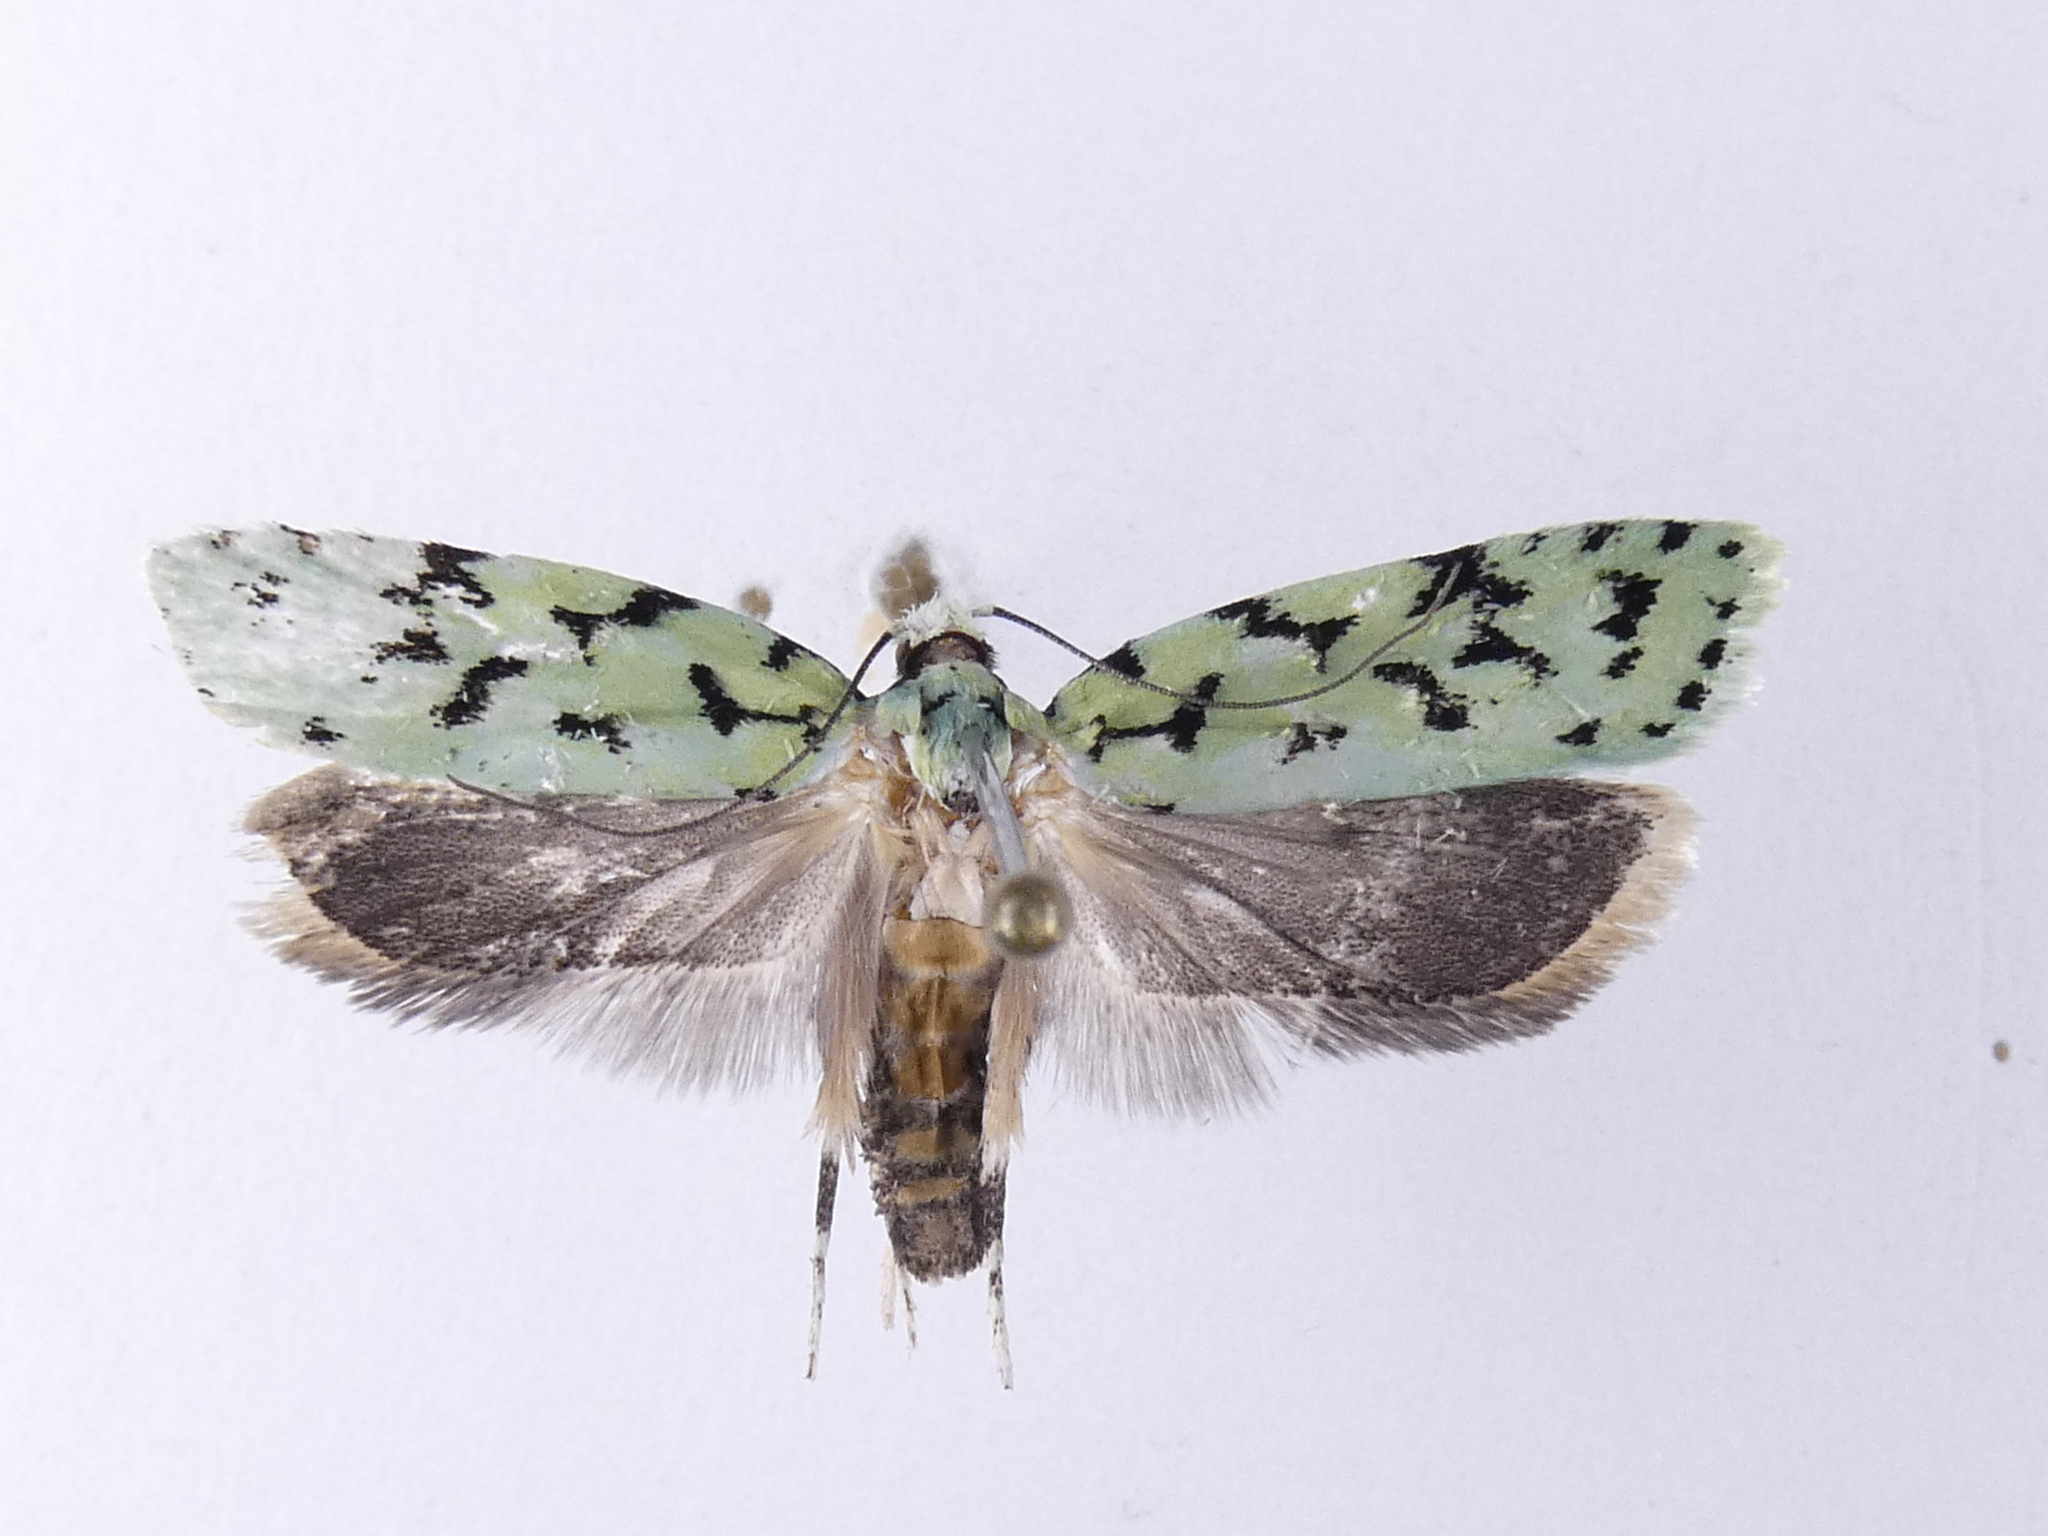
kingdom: Animalia
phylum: Arthropoda
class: Insecta
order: Lepidoptera
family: Oecophoridae
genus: Izatha
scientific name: Izatha huttoni
